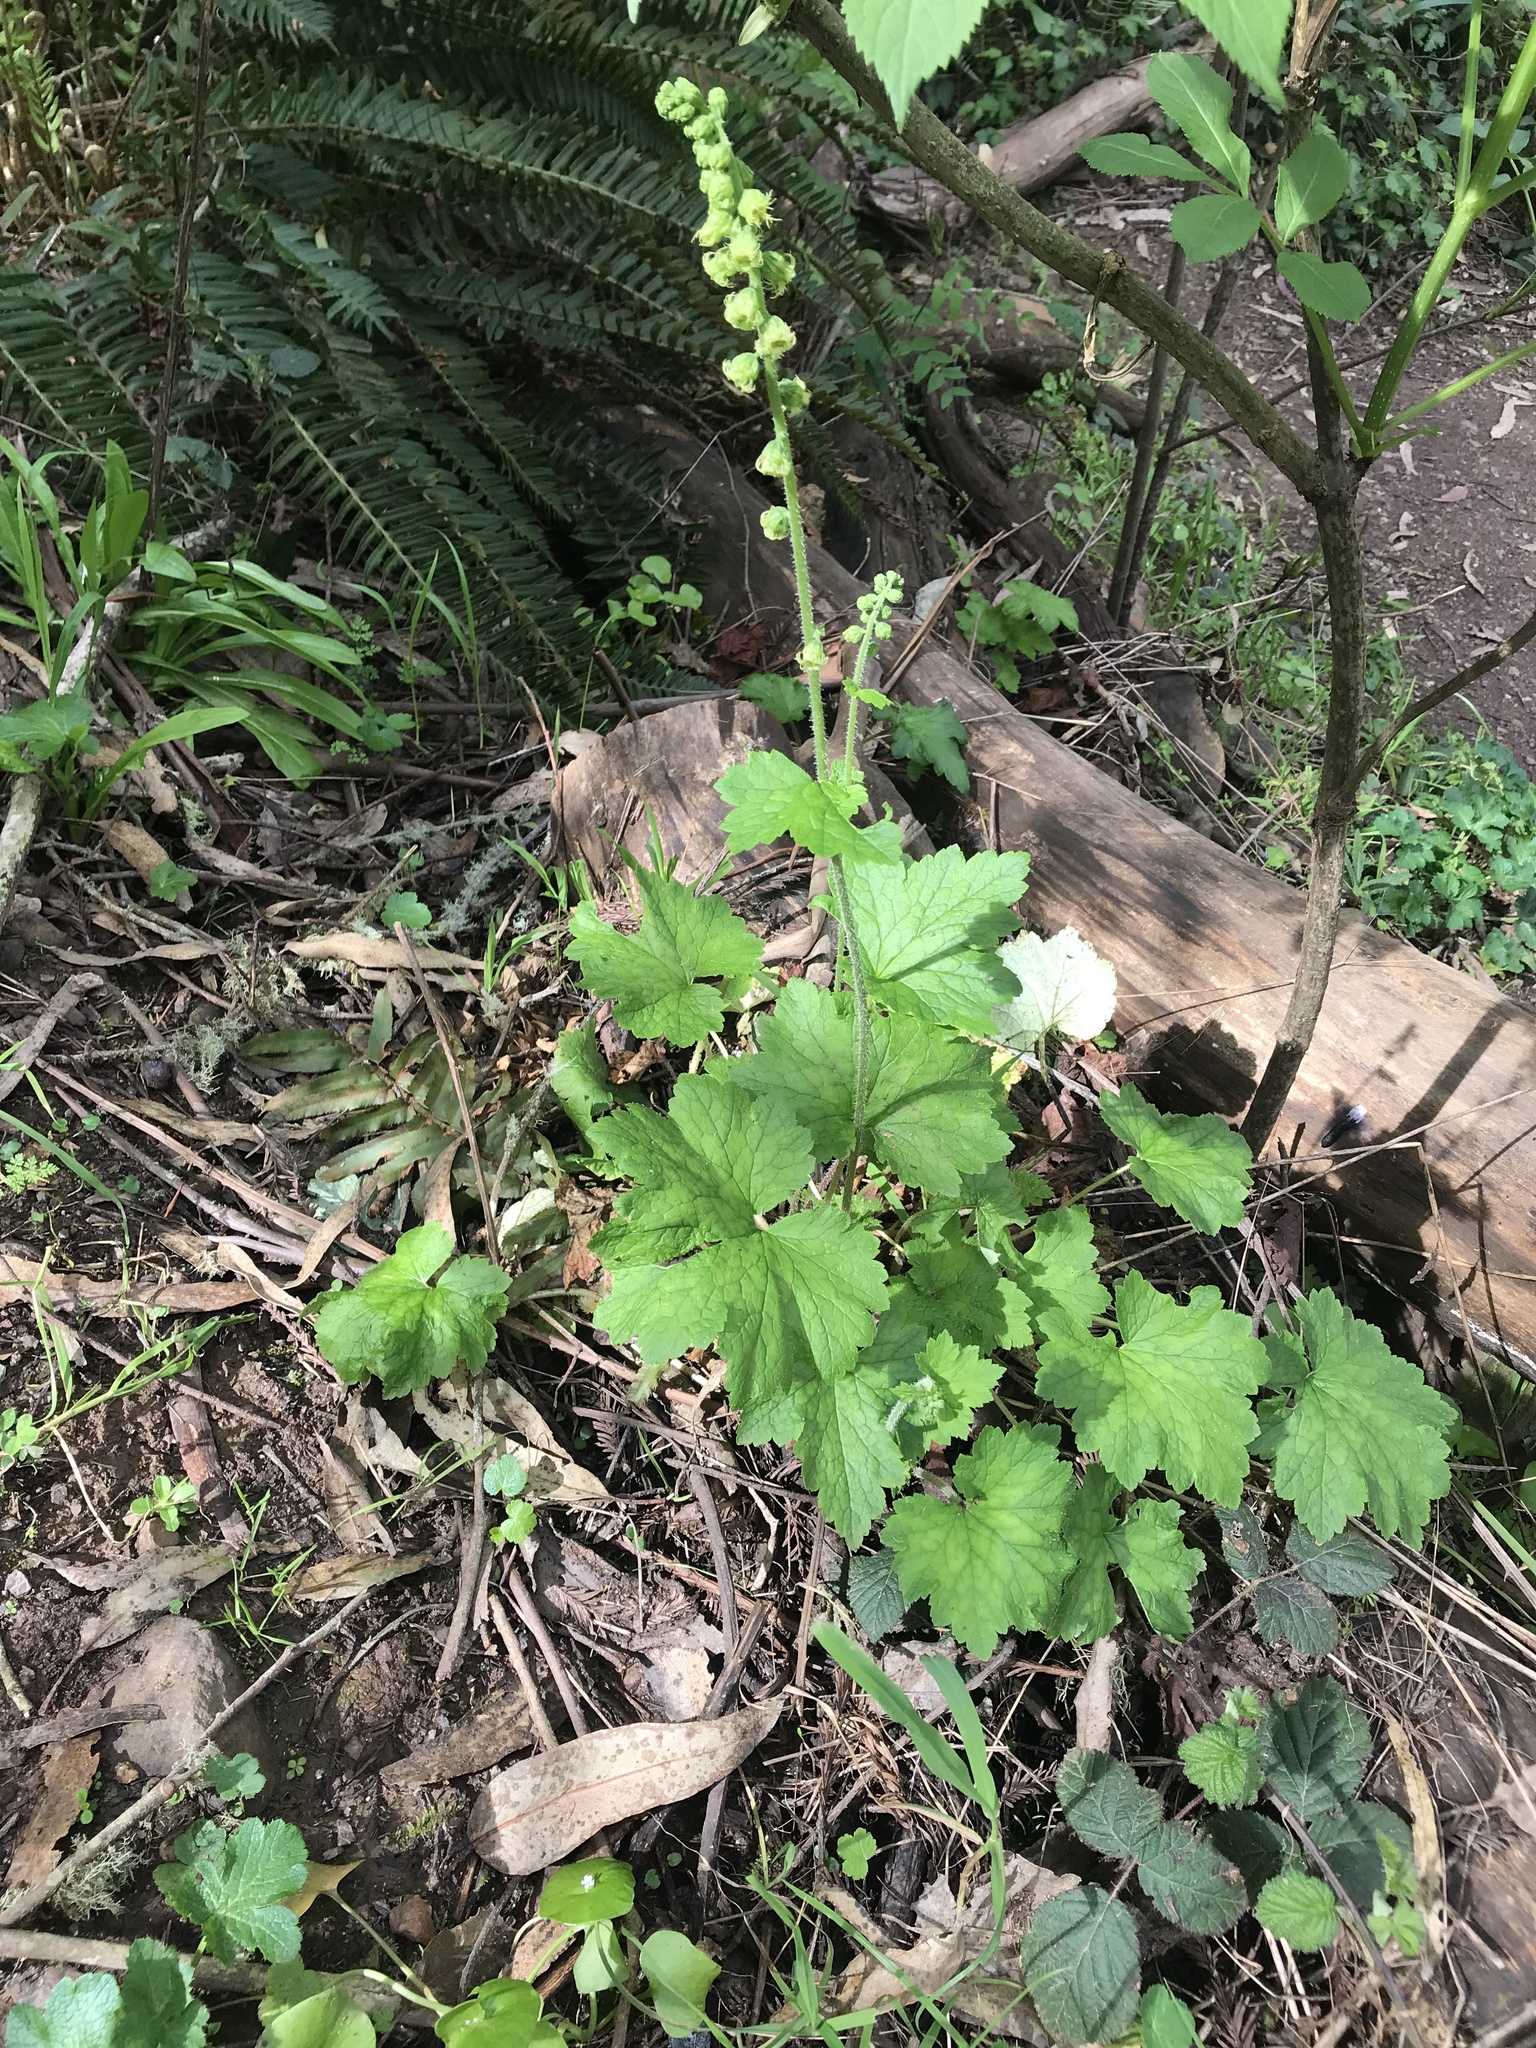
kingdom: Plantae
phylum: Tracheophyta
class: Magnoliopsida
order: Saxifragales
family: Saxifragaceae
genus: Tellima
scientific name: Tellima grandiflora
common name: Fringecups
